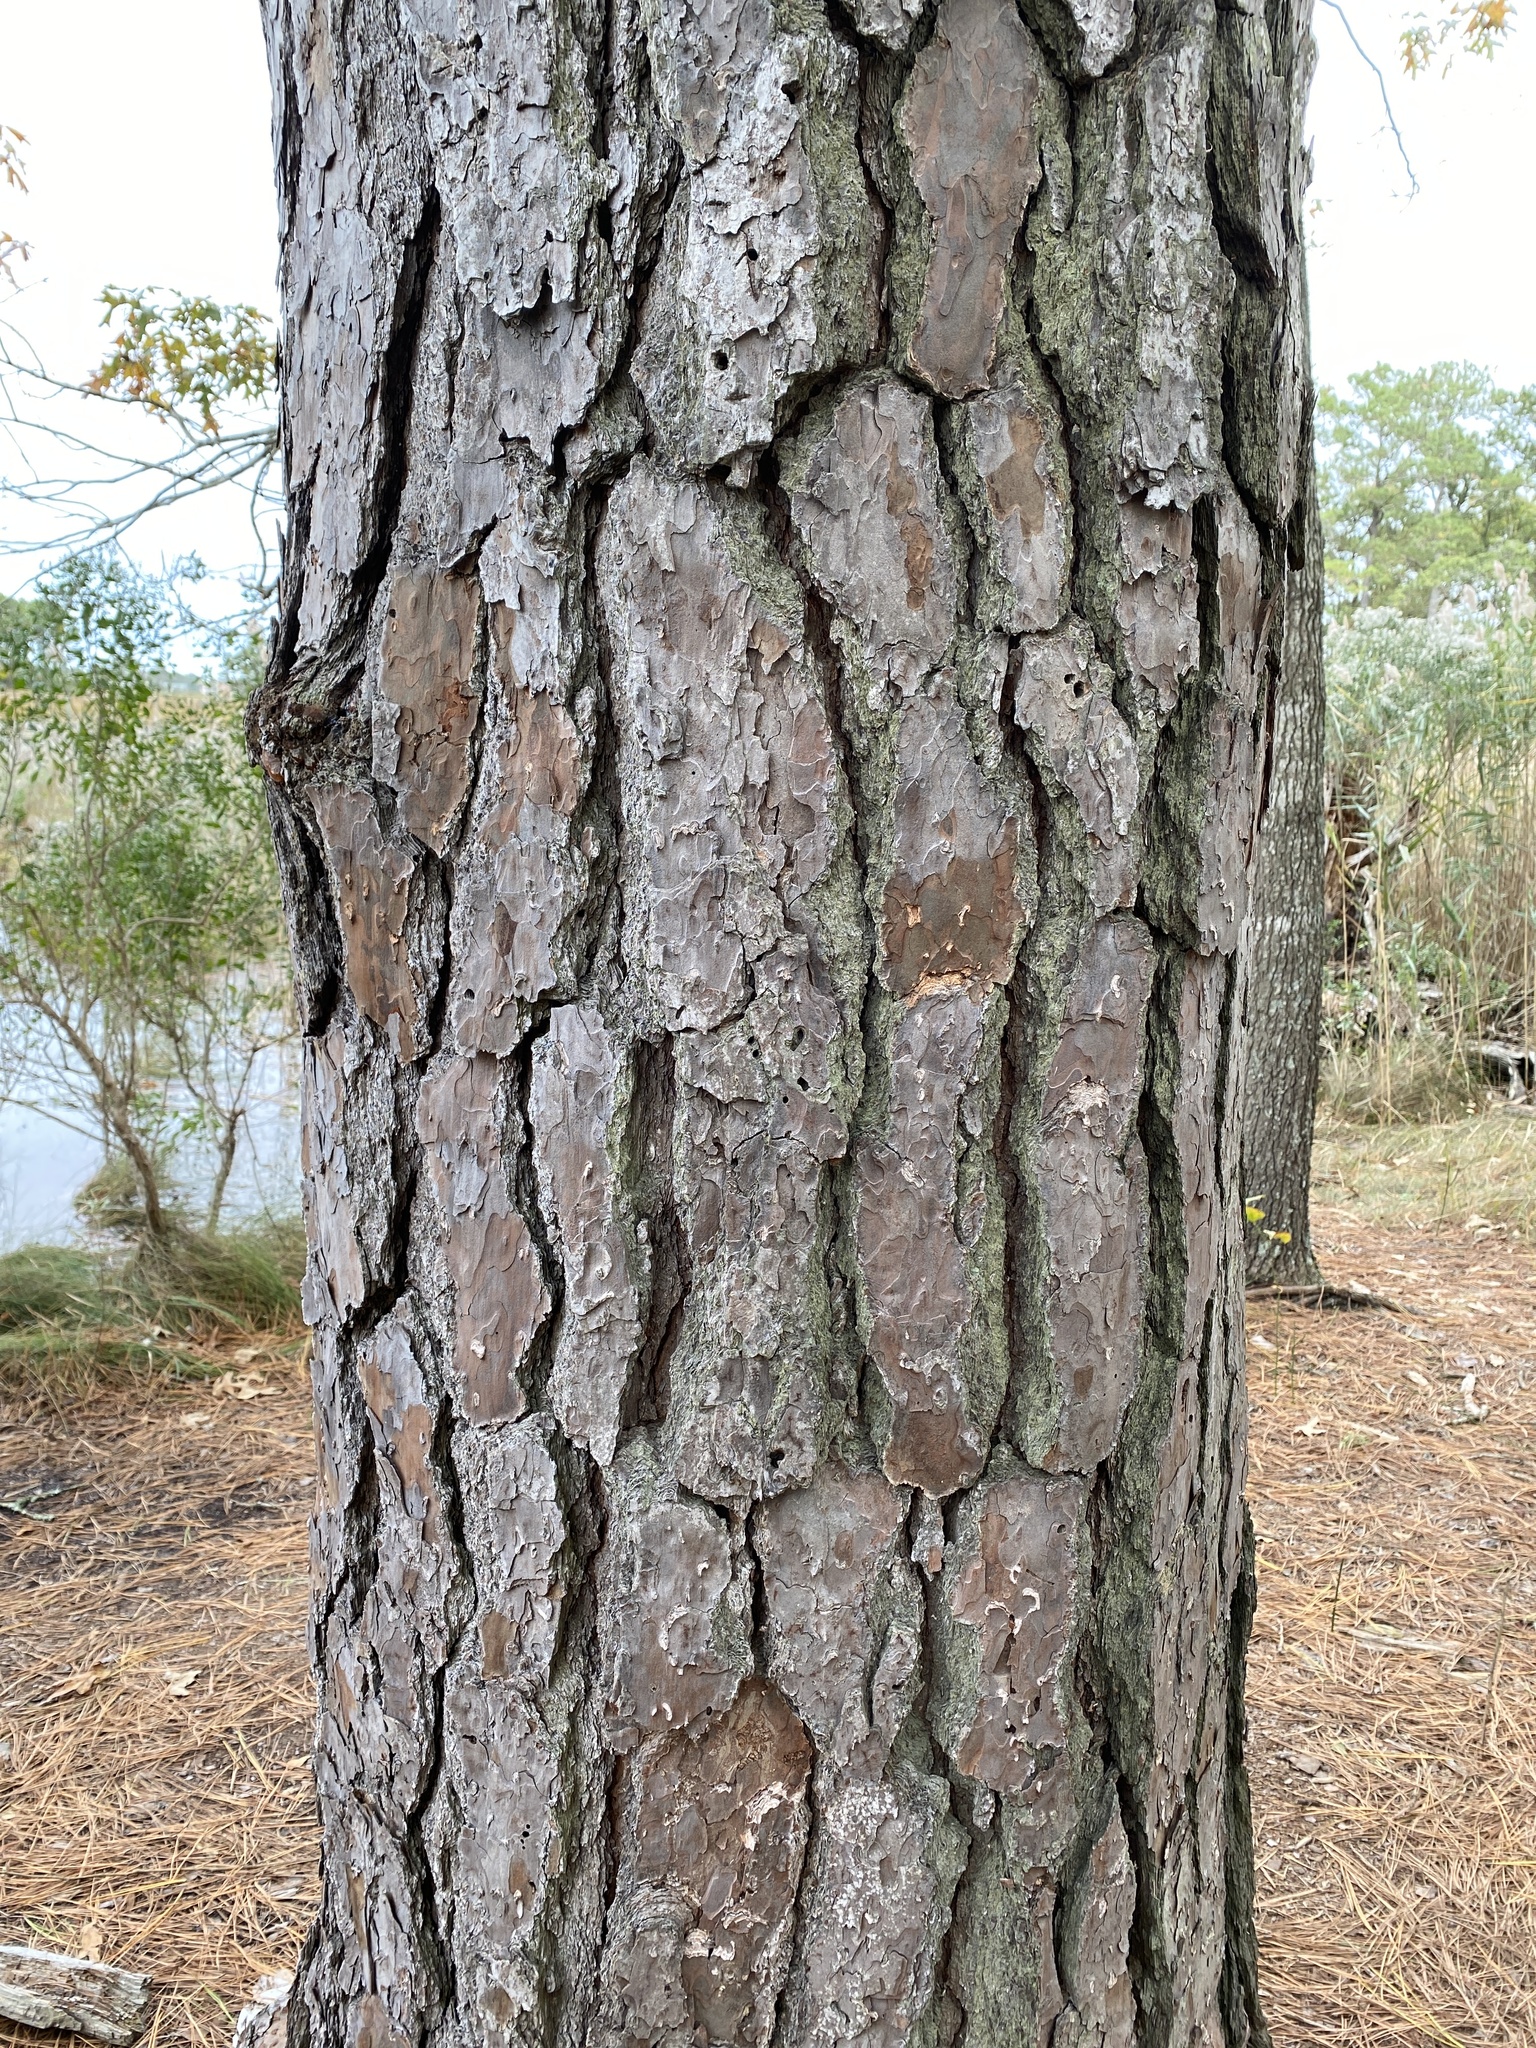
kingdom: Plantae
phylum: Tracheophyta
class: Pinopsida
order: Pinales
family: Pinaceae
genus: Pinus
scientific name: Pinus taeda
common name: Loblolly pine
